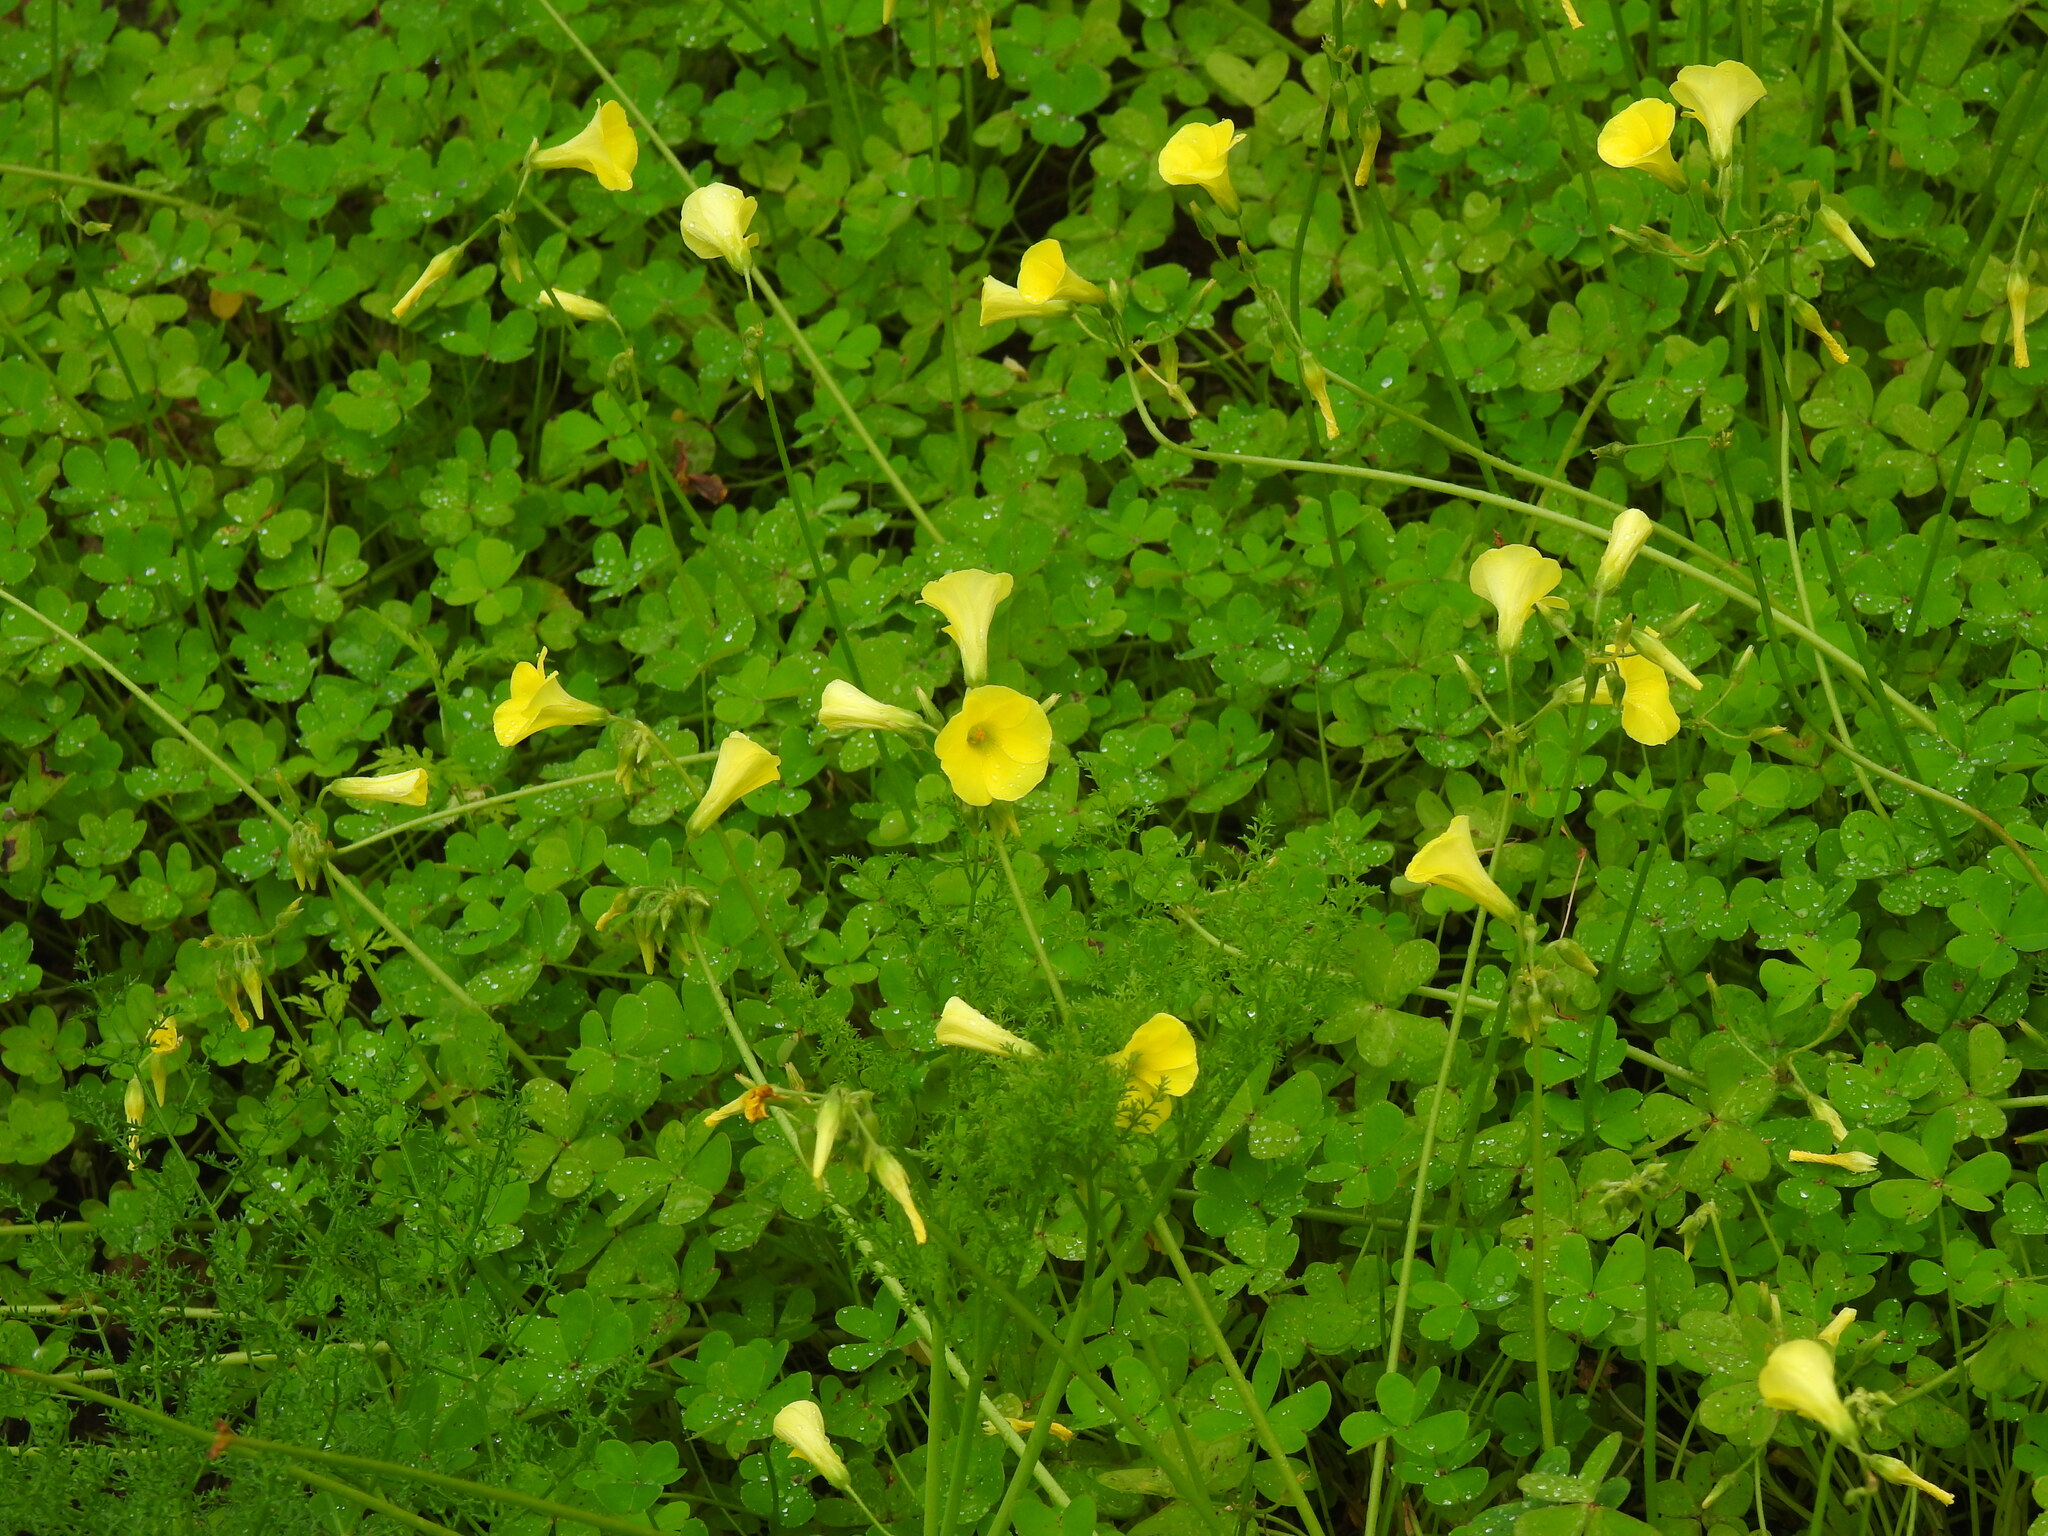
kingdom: Plantae
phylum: Tracheophyta
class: Magnoliopsida
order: Oxalidales
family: Oxalidaceae
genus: Oxalis
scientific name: Oxalis pes-caprae
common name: Bermuda-buttercup
